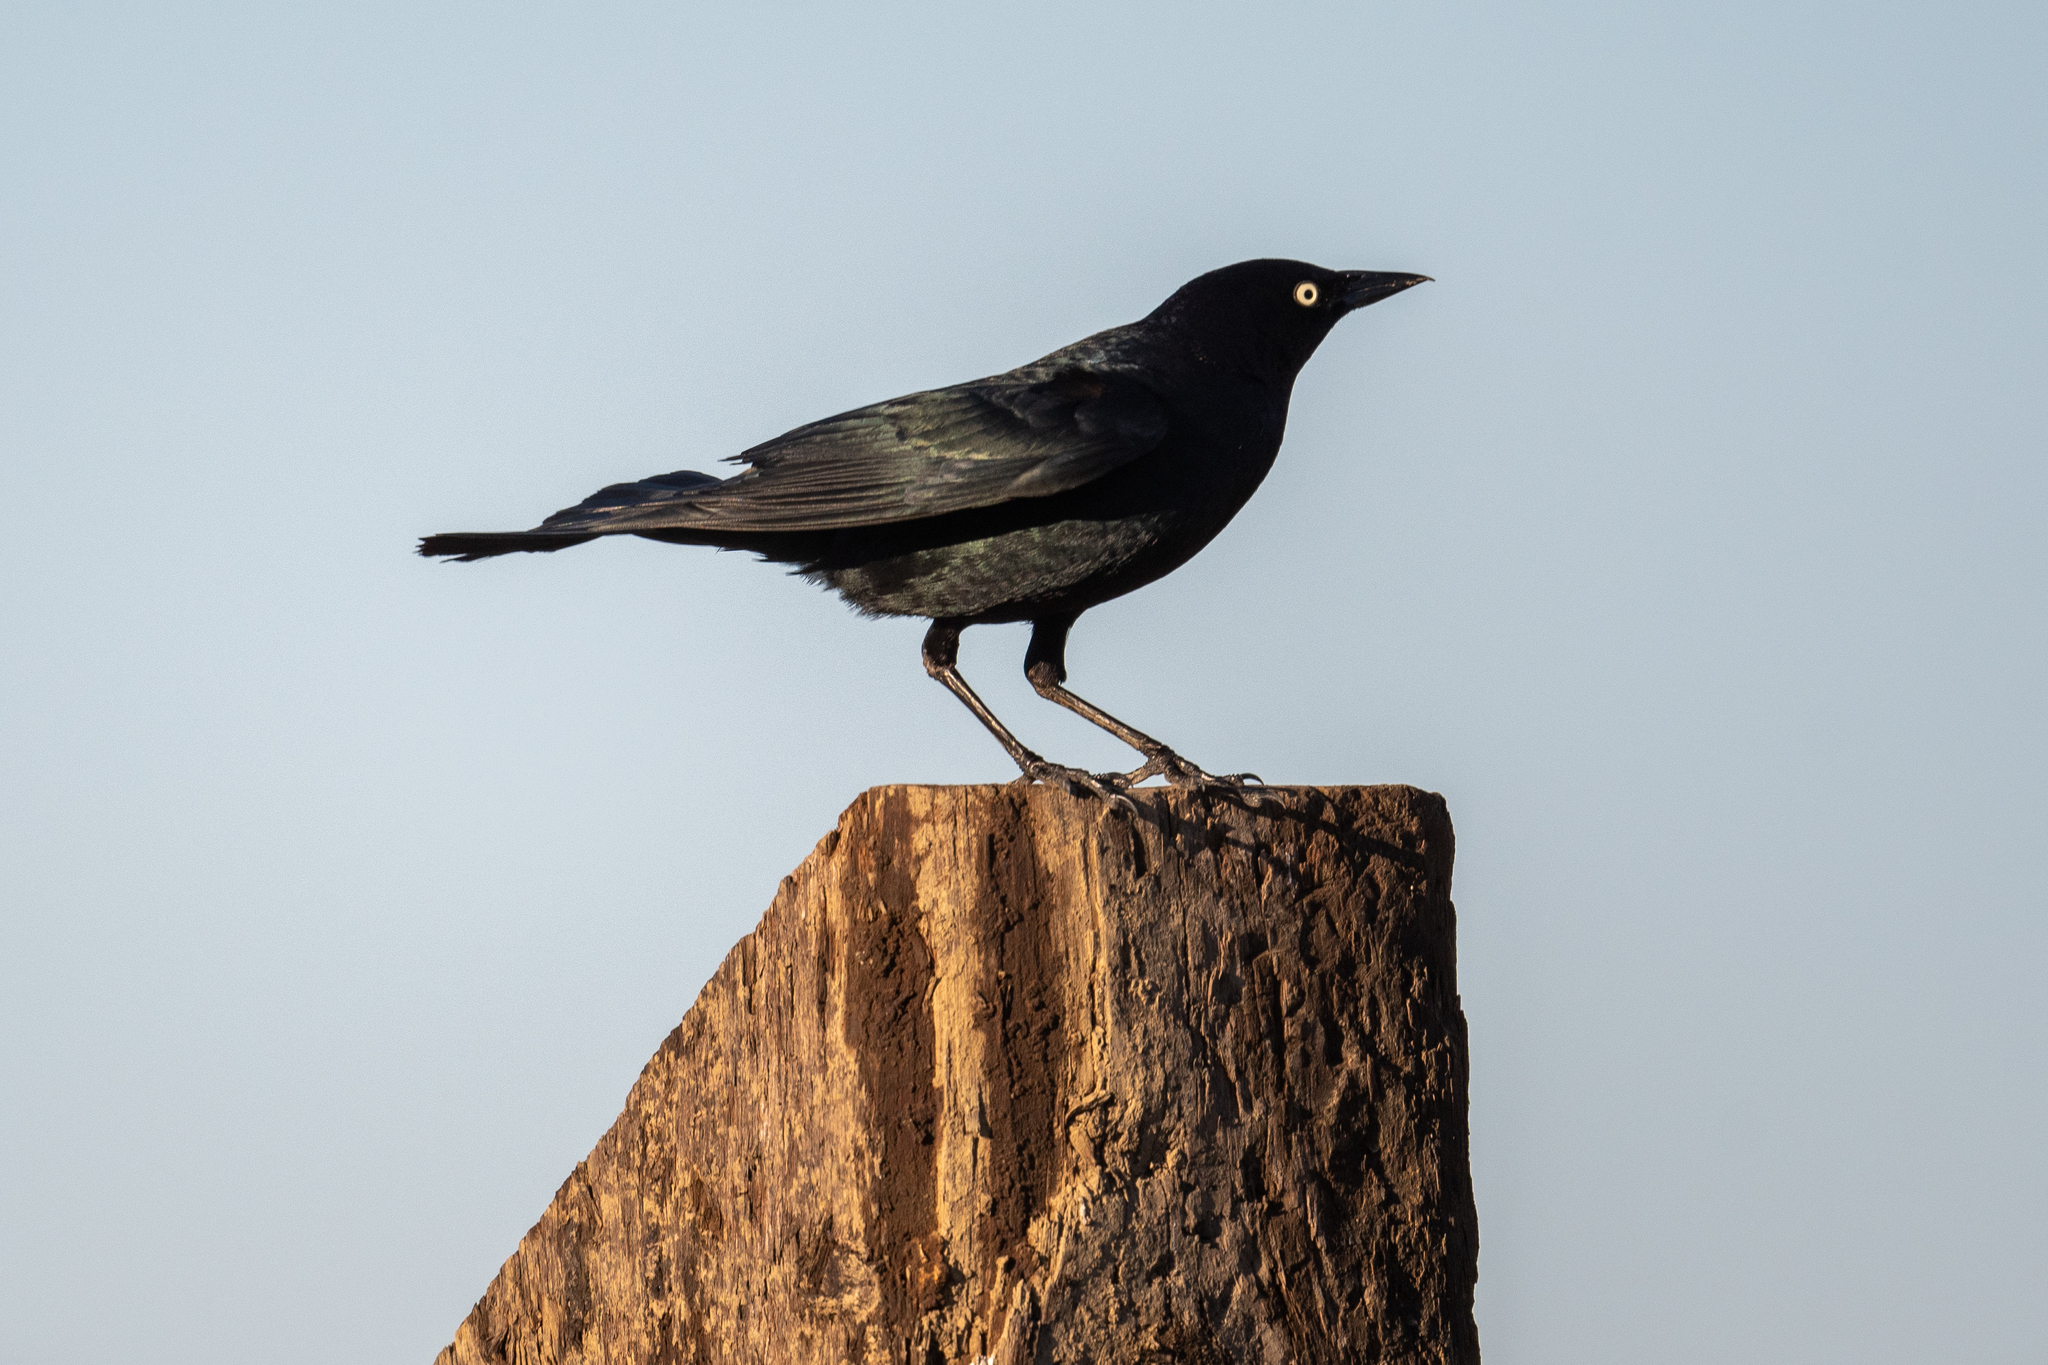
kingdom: Animalia
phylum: Chordata
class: Aves
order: Passeriformes
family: Icteridae
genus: Euphagus
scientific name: Euphagus cyanocephalus
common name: Brewer's blackbird
